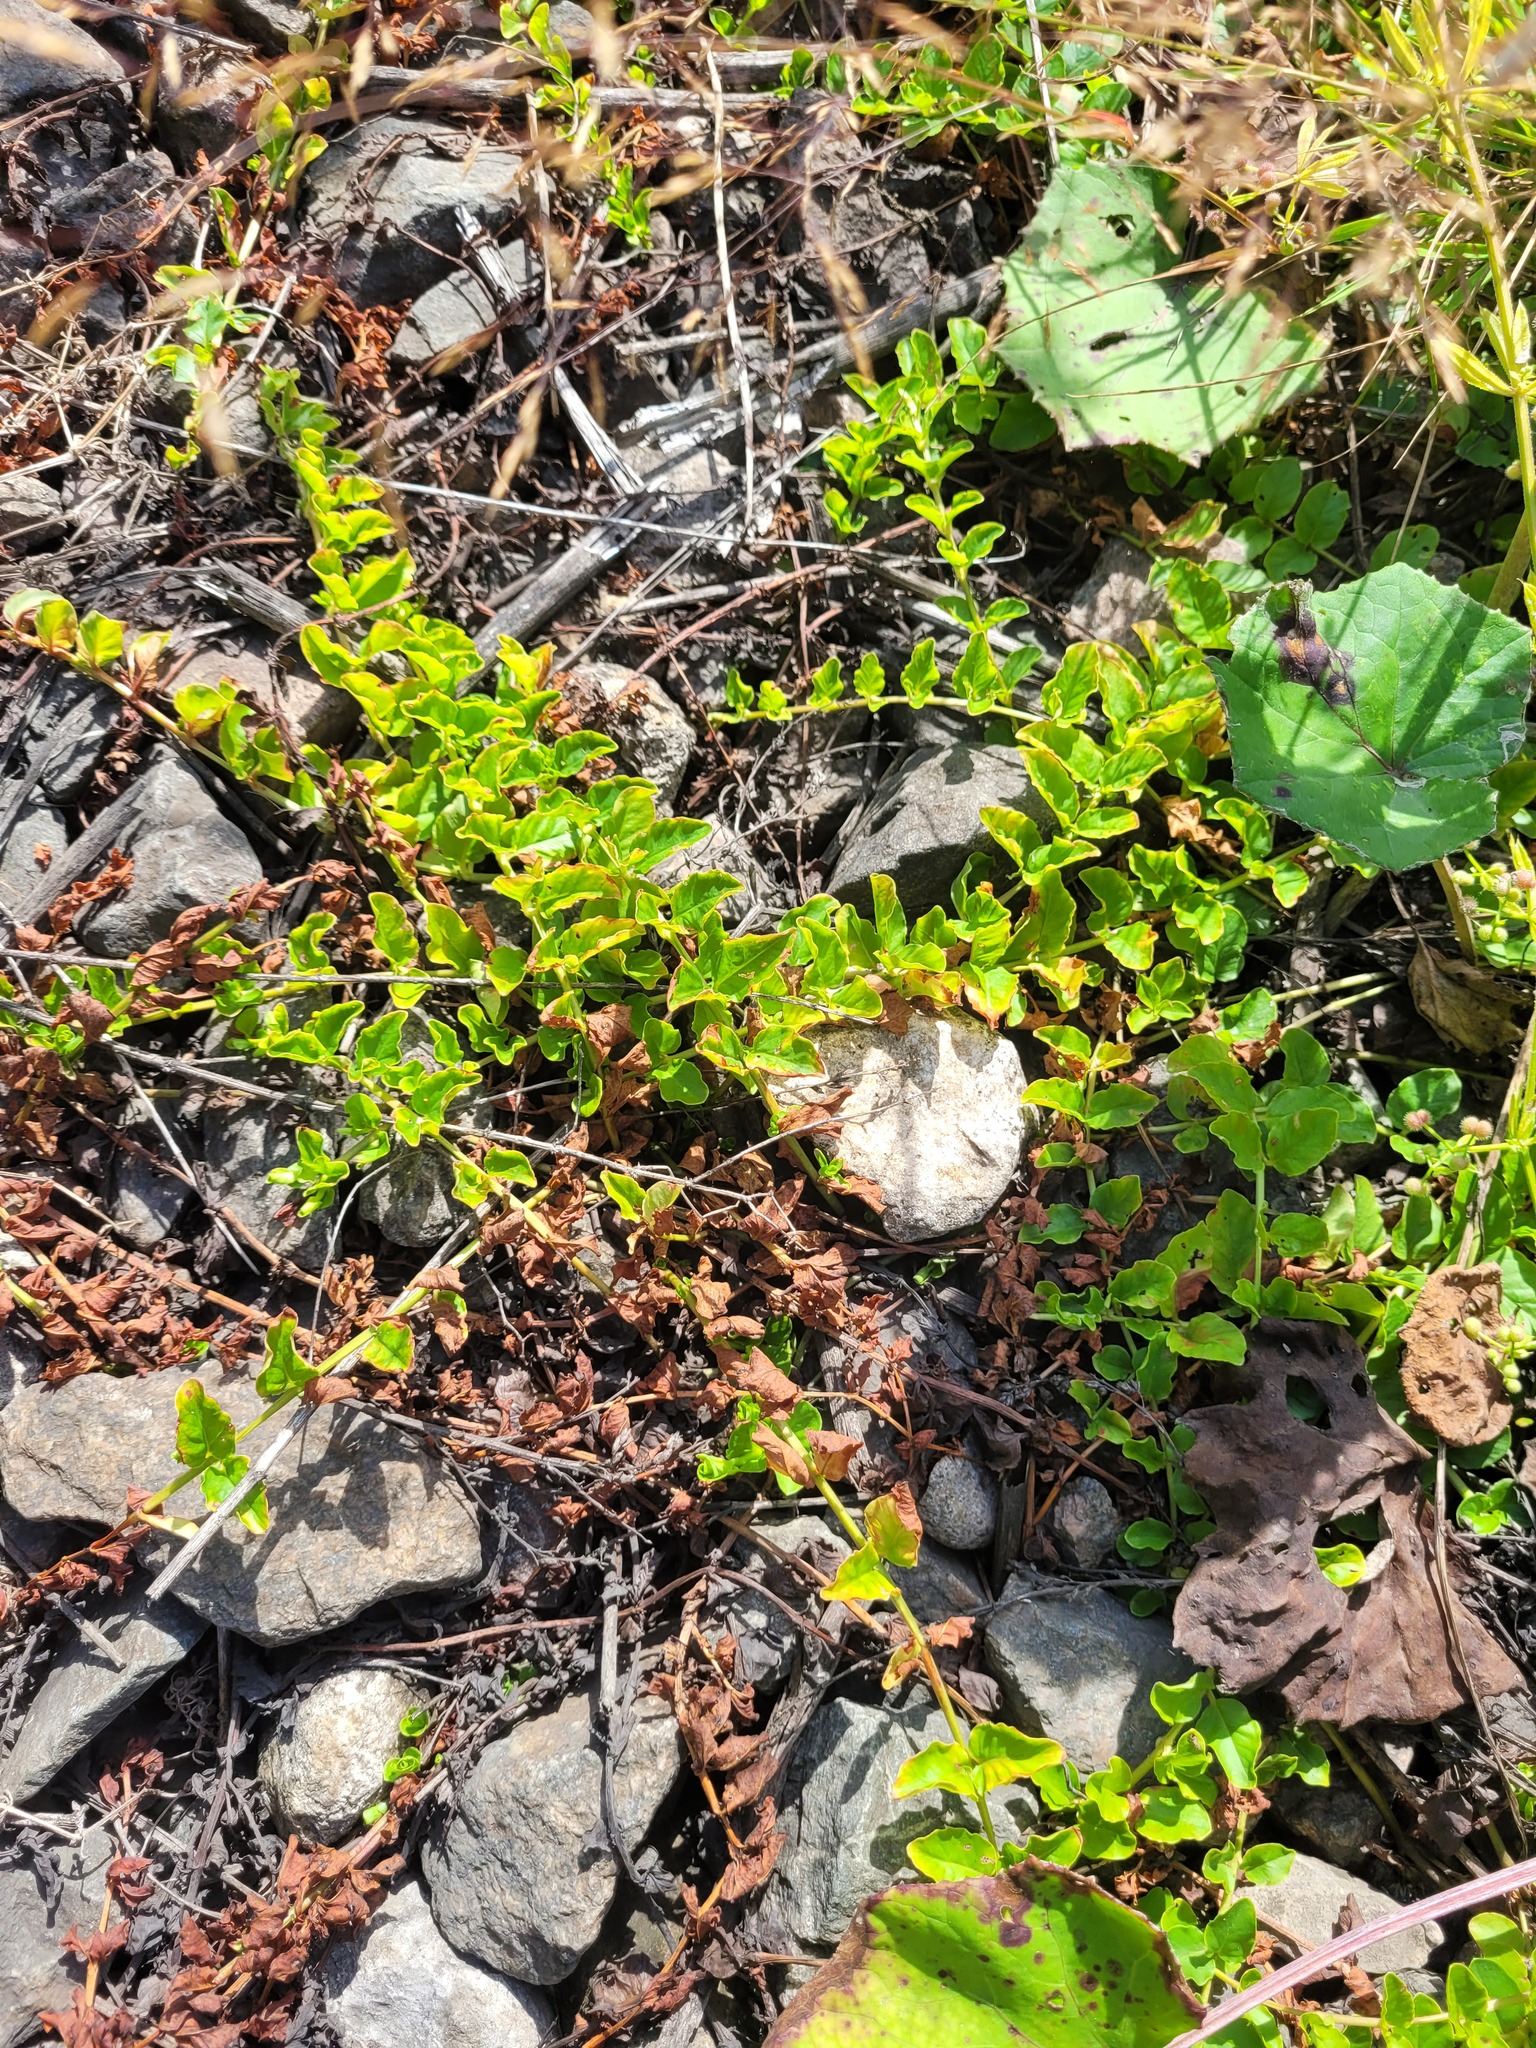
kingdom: Plantae
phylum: Tracheophyta
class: Magnoliopsida
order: Ericales
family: Primulaceae
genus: Lysimachia
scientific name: Lysimachia nummularia
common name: Moneywort
